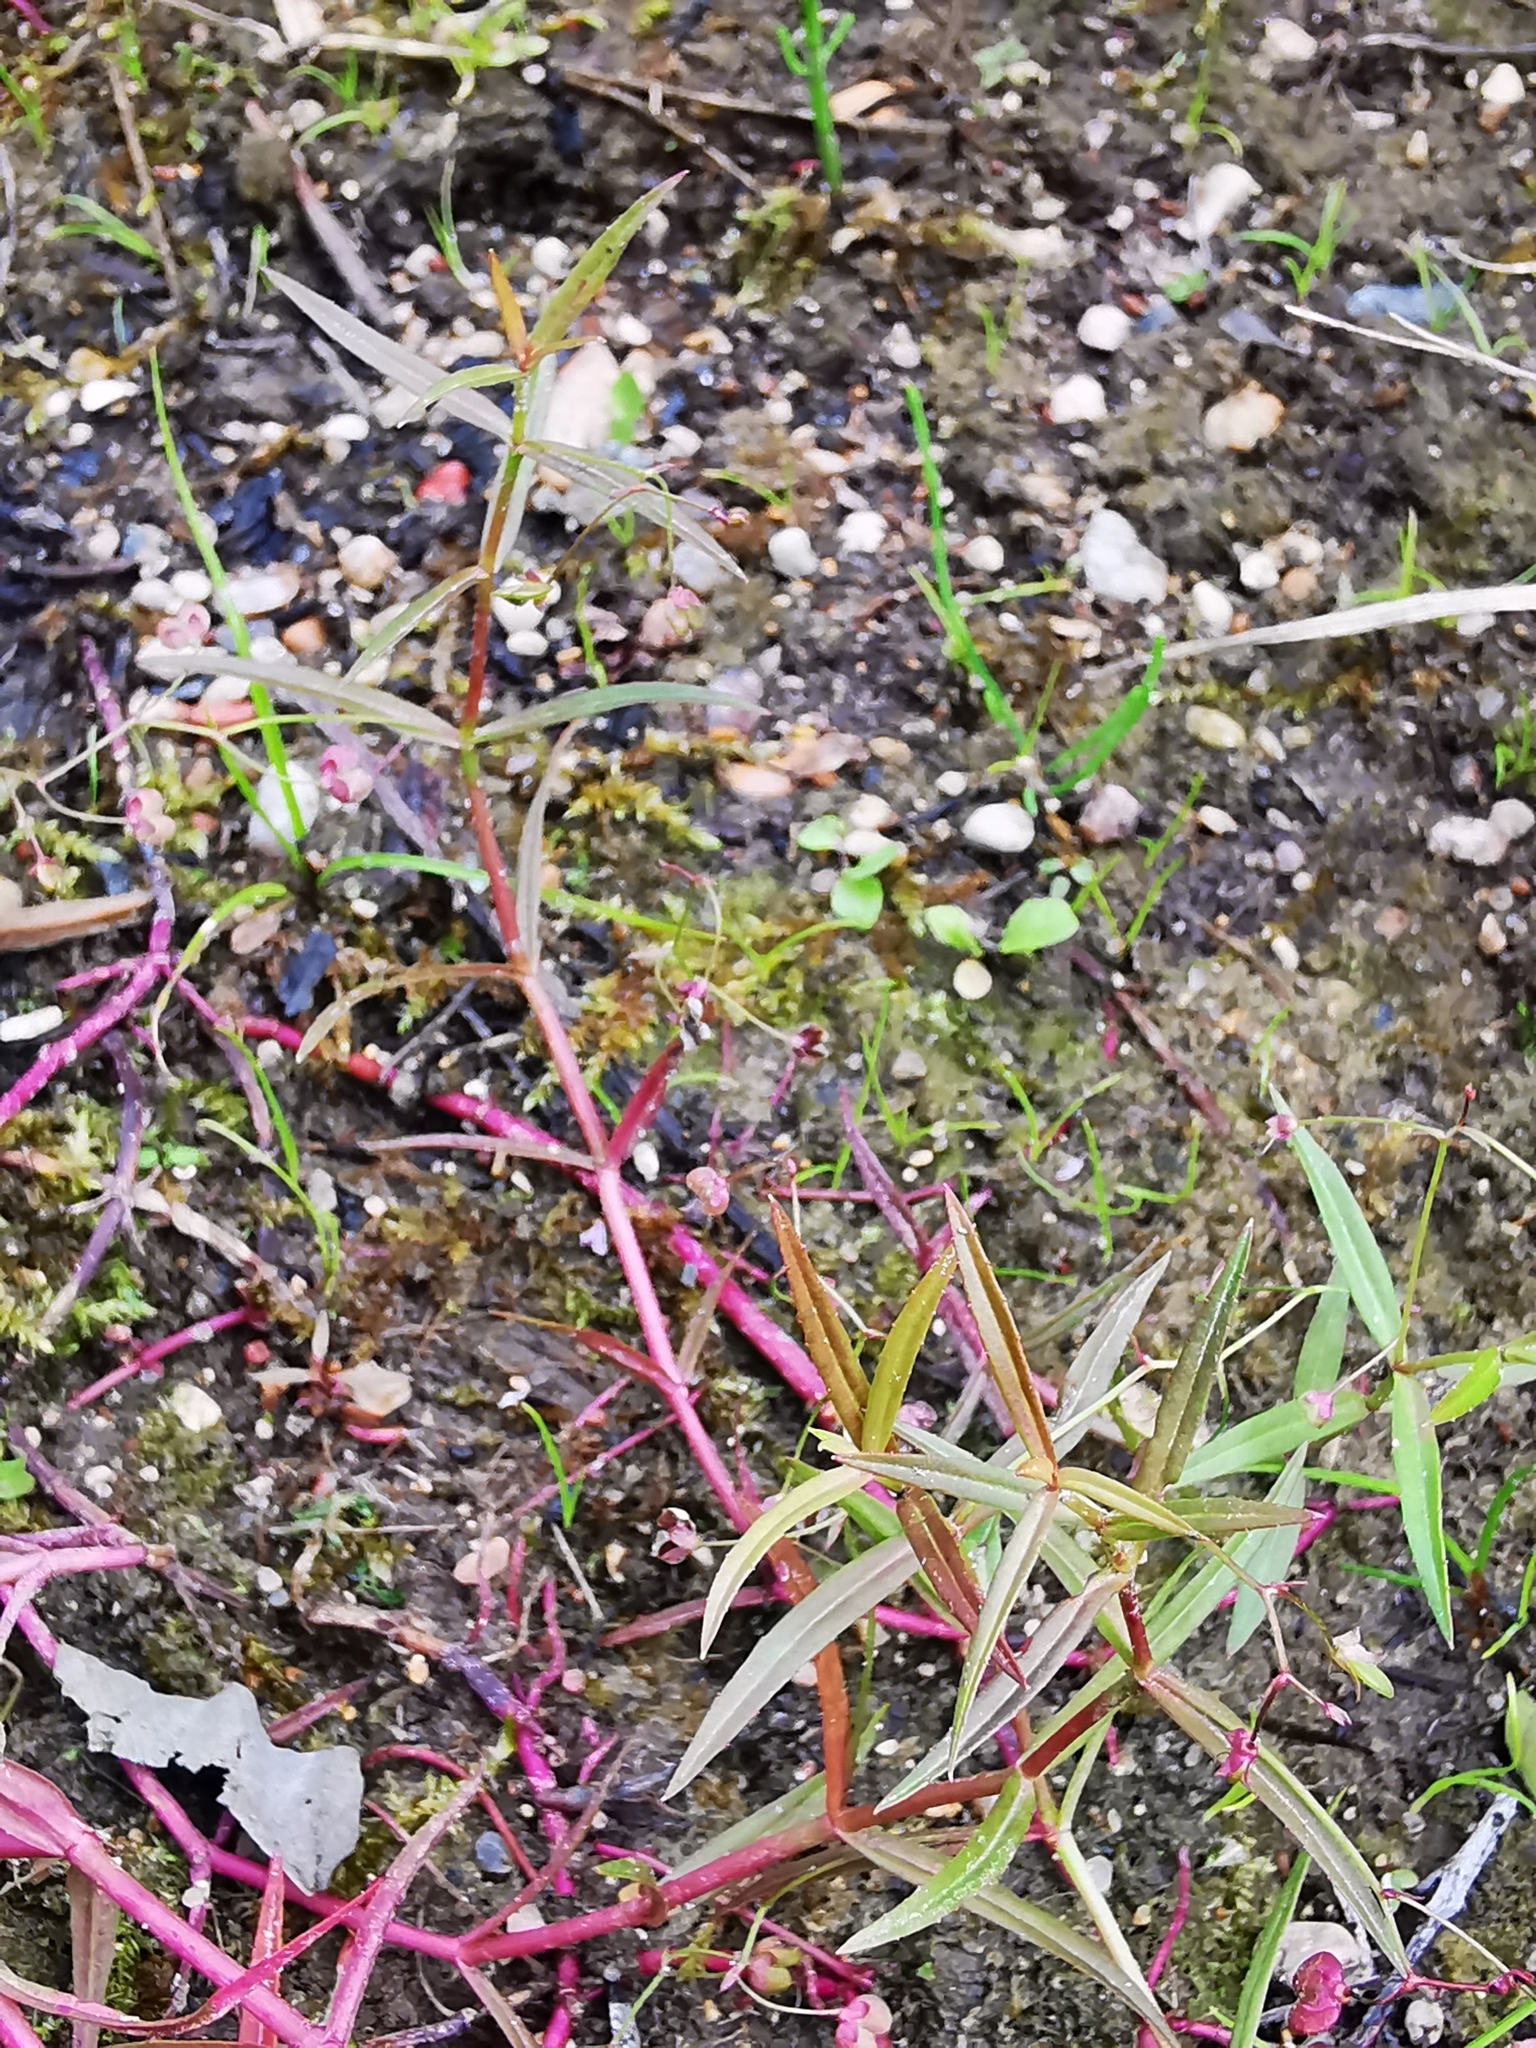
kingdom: Plantae
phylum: Tracheophyta
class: Magnoliopsida
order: Lamiales
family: Plantaginaceae
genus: Veronica
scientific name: Veronica scutellata
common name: Marsh speedwell
